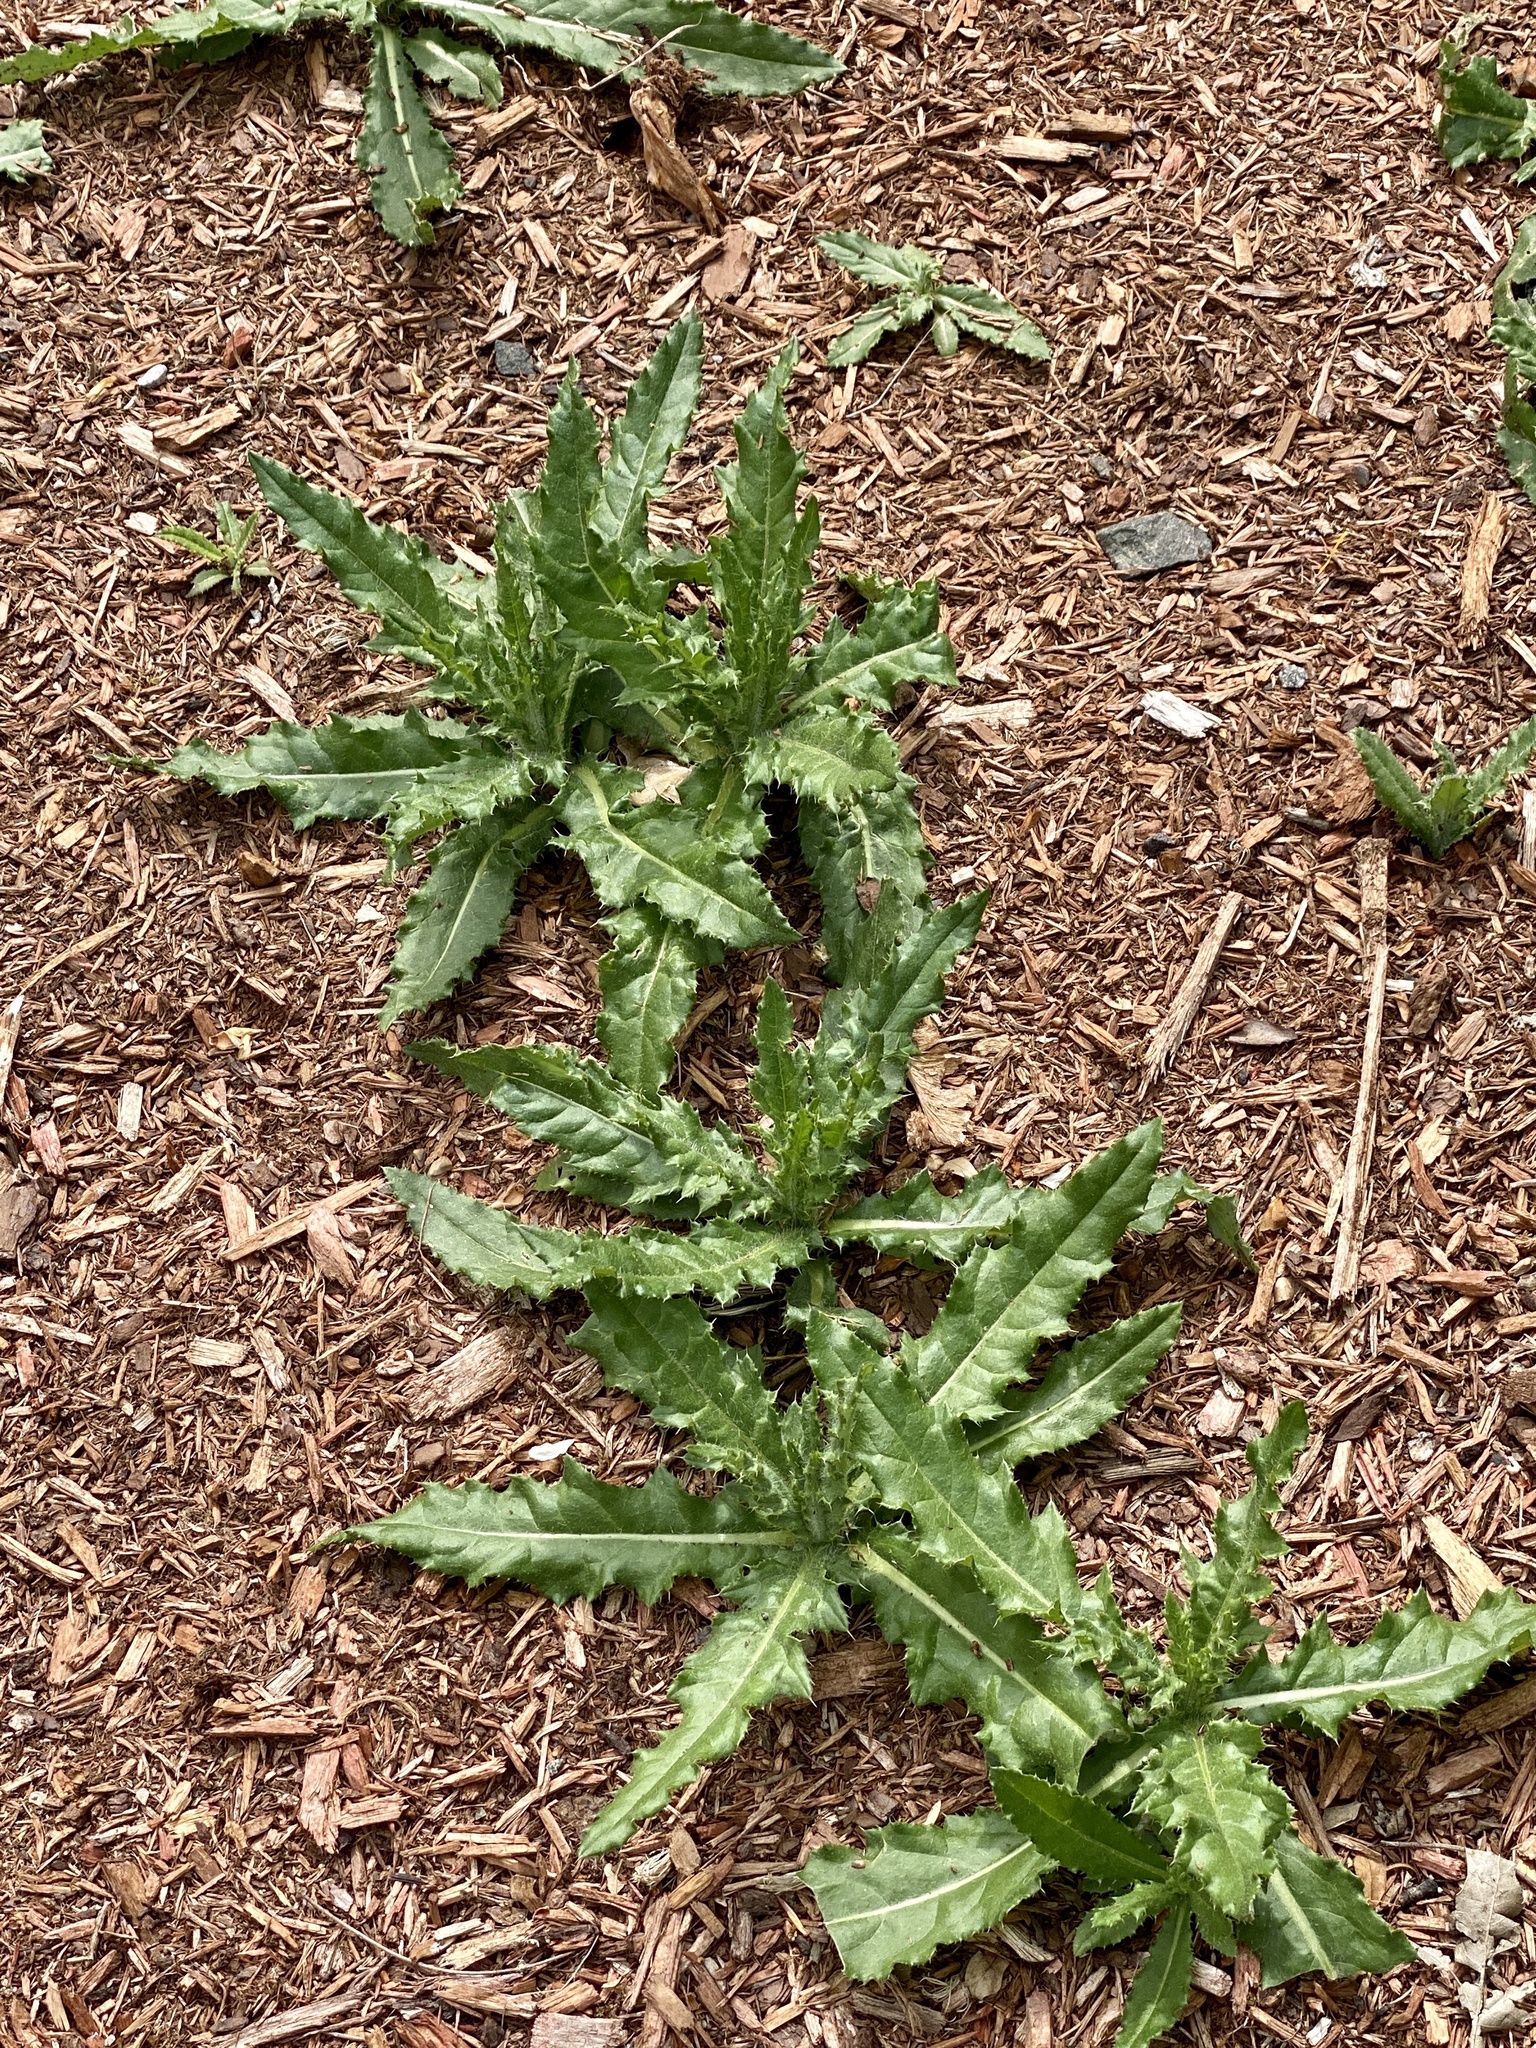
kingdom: Plantae
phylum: Tracheophyta
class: Magnoliopsida
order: Asterales
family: Asteraceae
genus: Cirsium
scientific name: Cirsium arvense
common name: Creeping thistle
